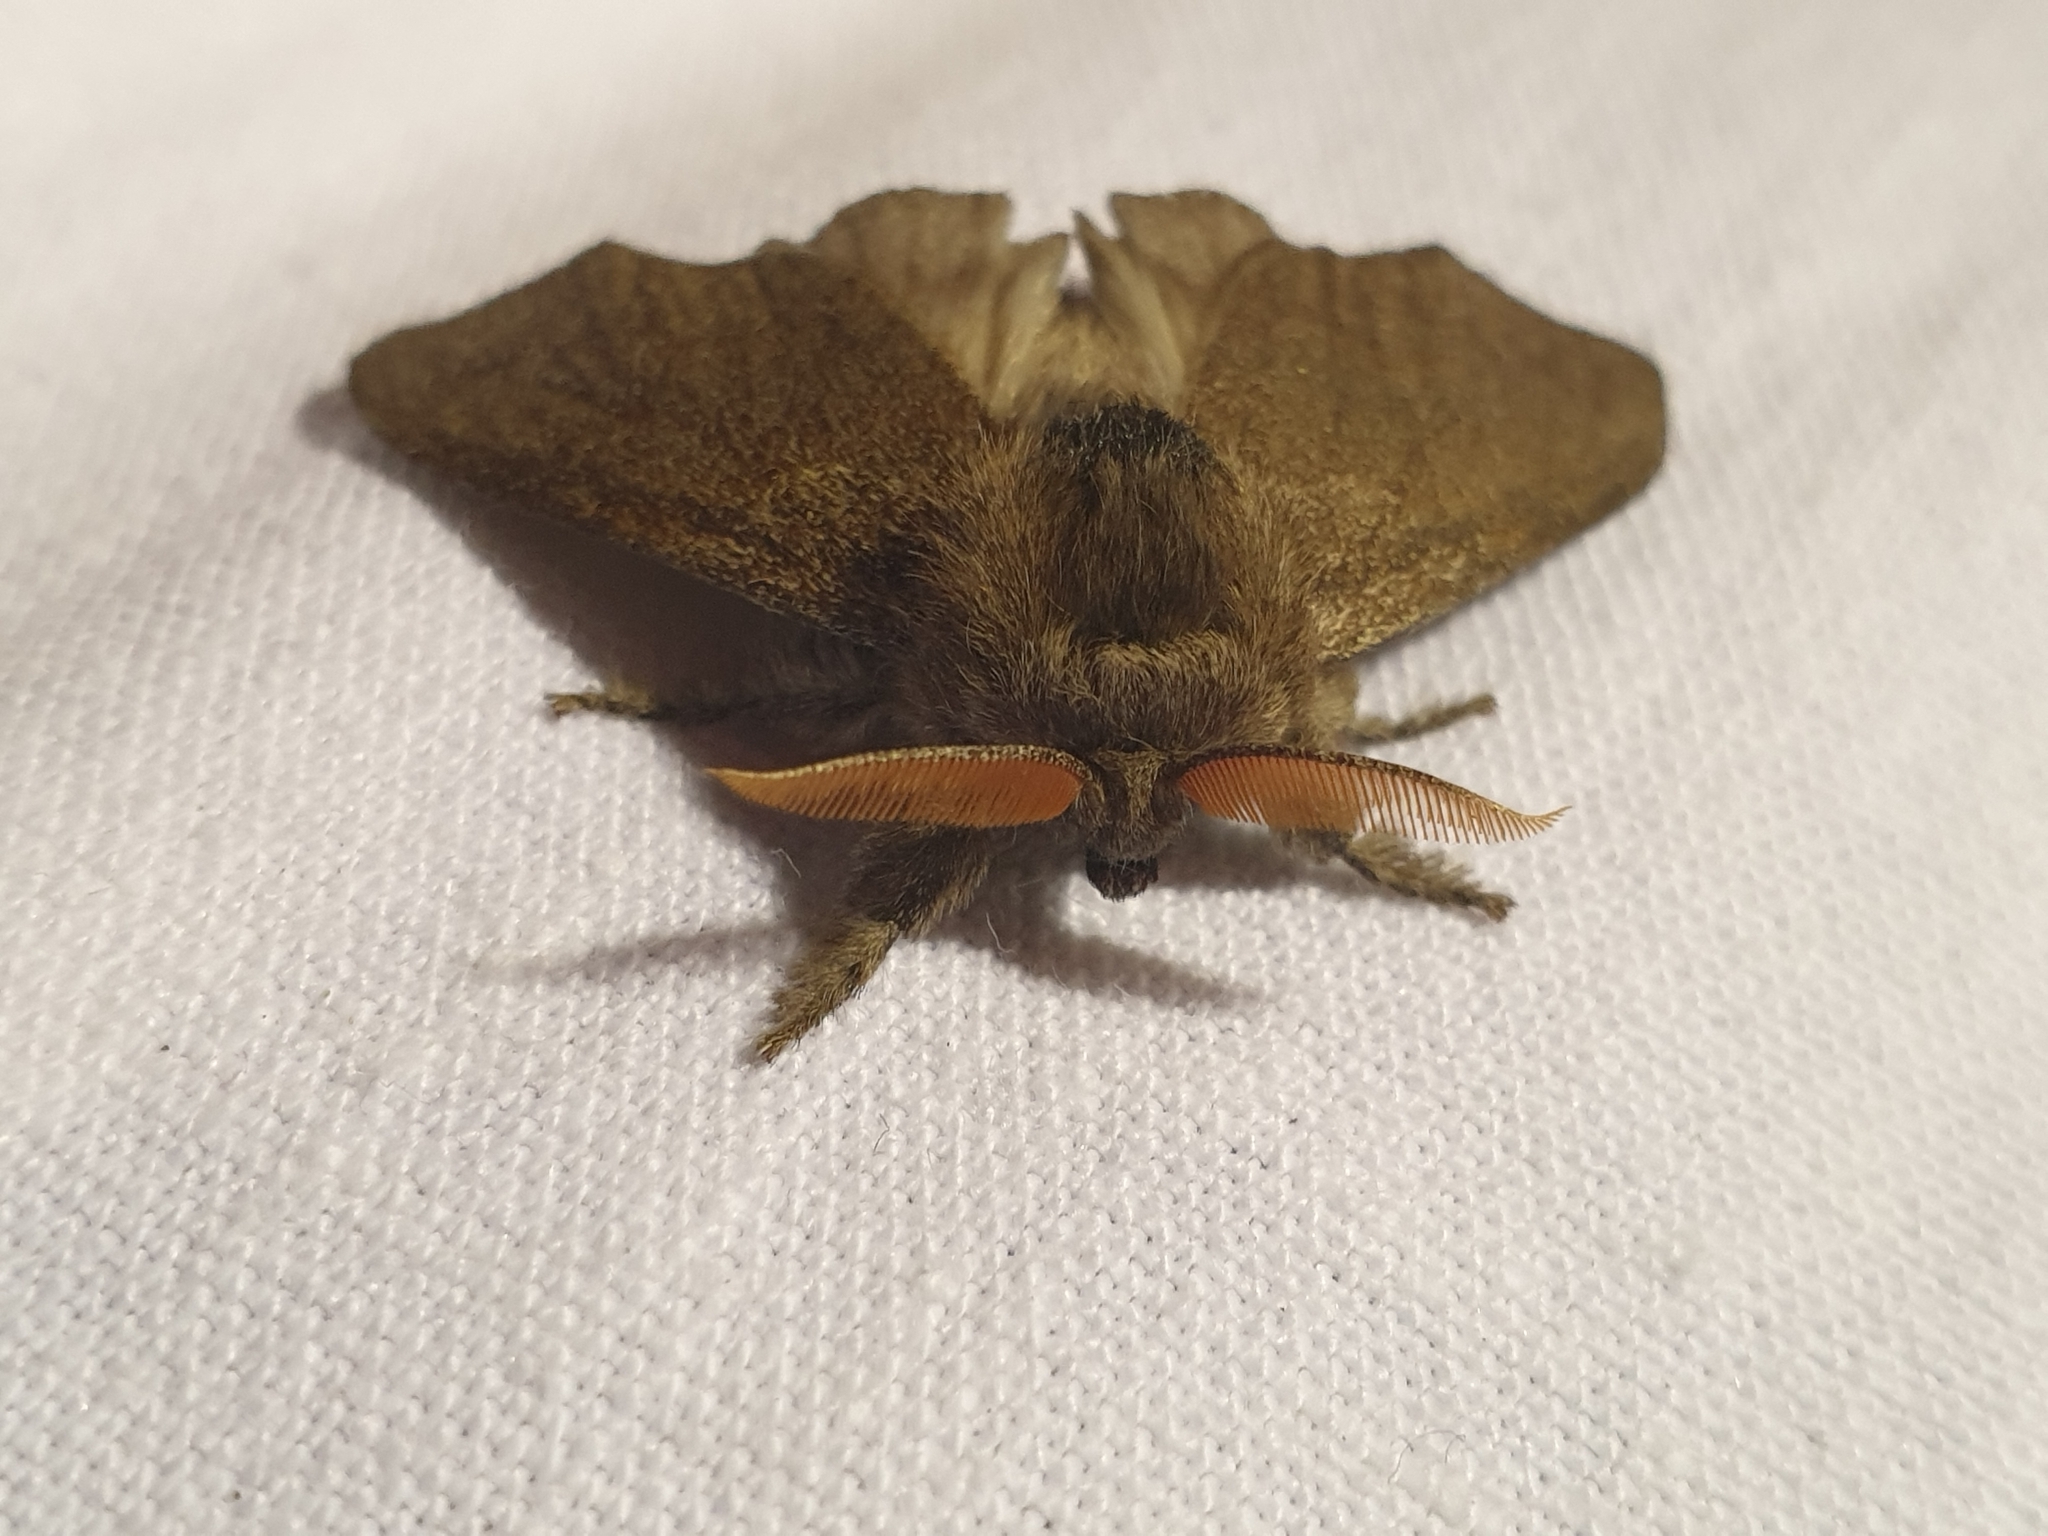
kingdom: Animalia
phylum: Arthropoda
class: Insecta
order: Lepidoptera
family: Erebidae
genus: Calliteara
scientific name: Calliteara pudibunda
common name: Pale tussock
